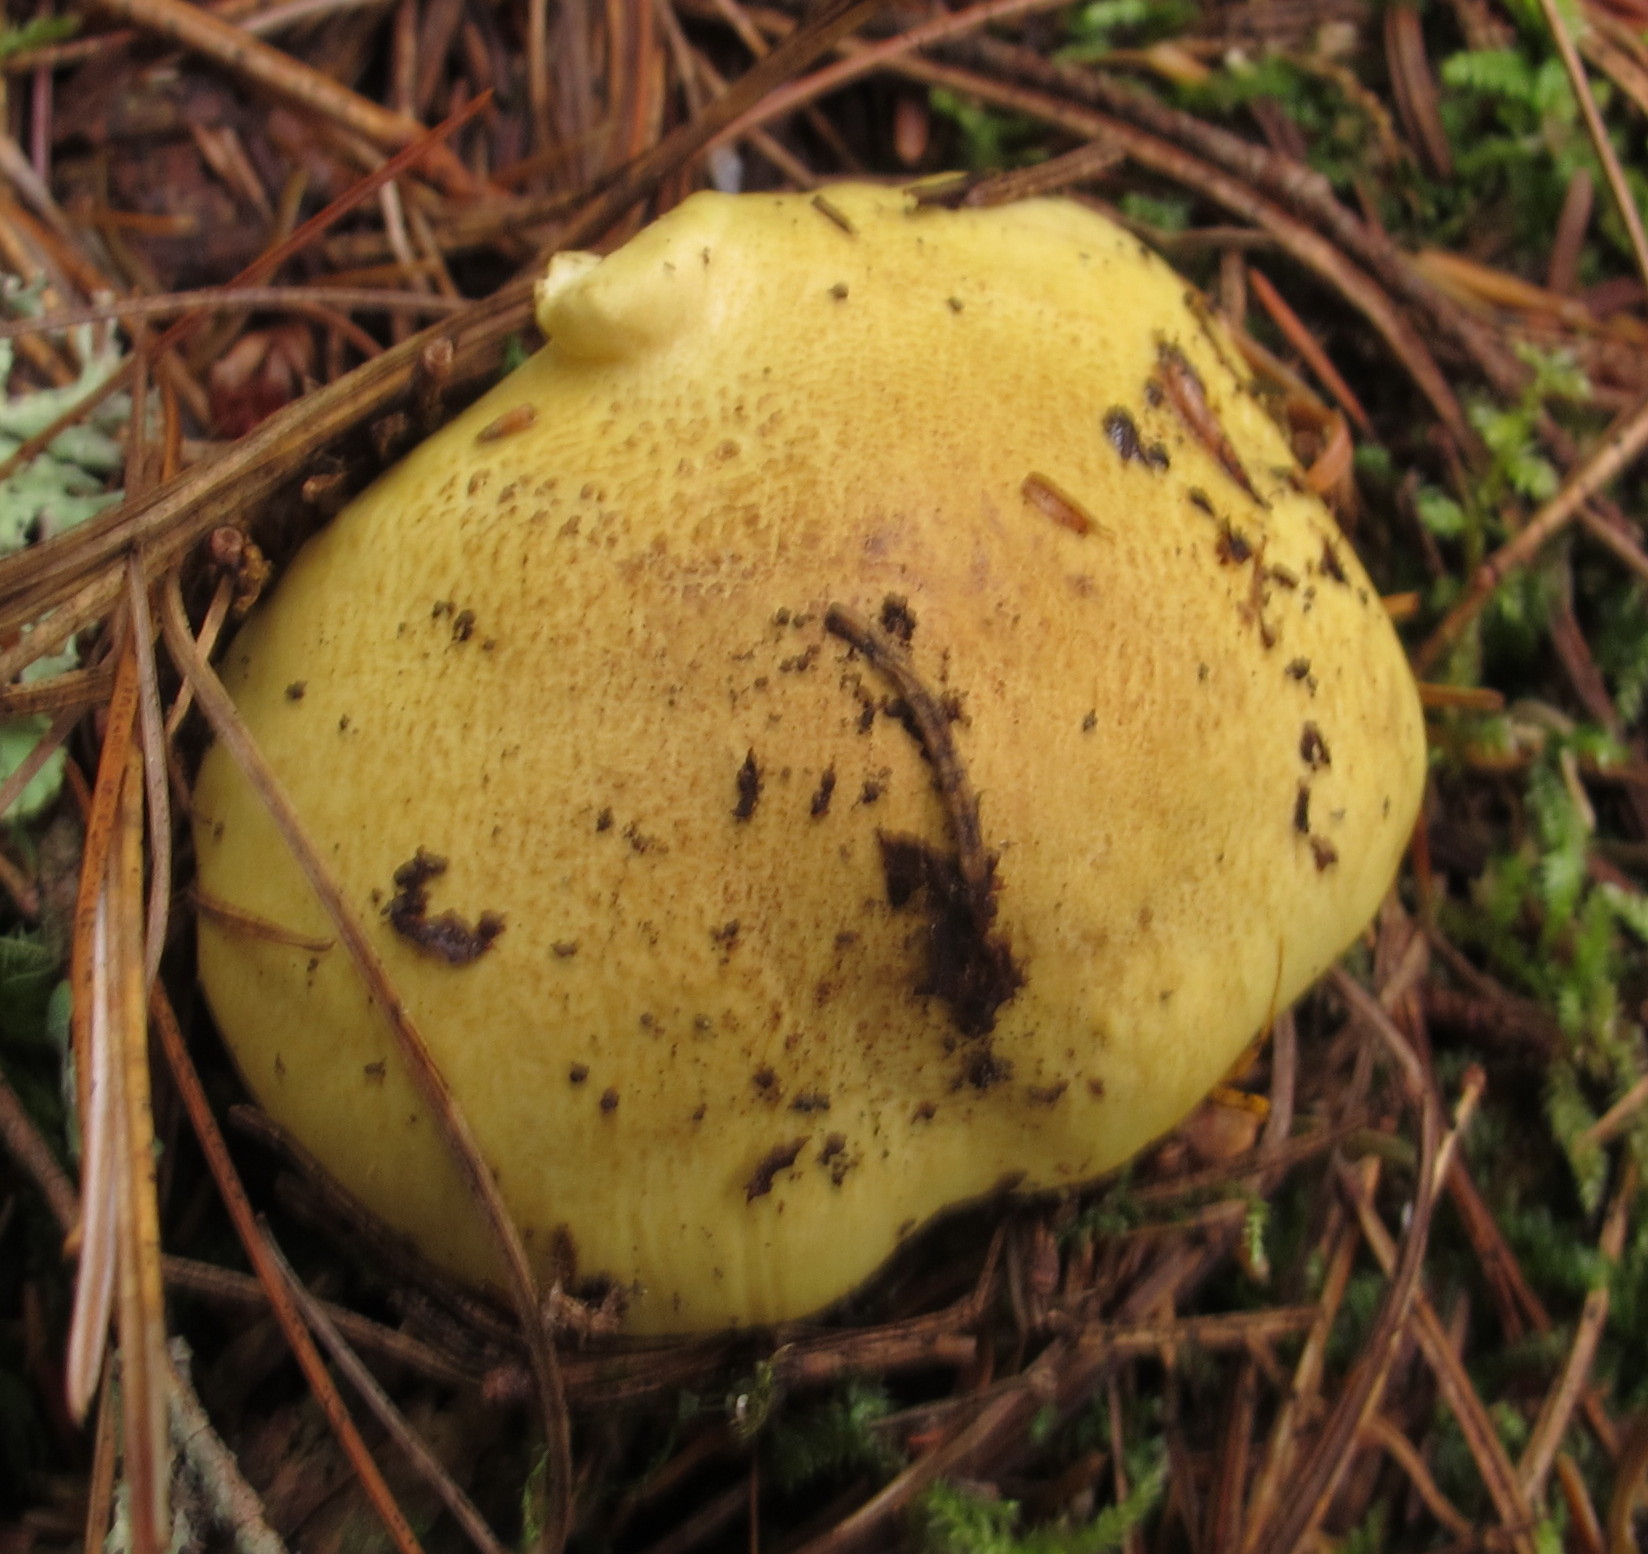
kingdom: Fungi
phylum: Basidiomycota
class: Agaricomycetes
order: Agaricales
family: Tricholomataceae
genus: Tricholoma
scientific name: Tricholoma equestre
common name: Yellow knight
